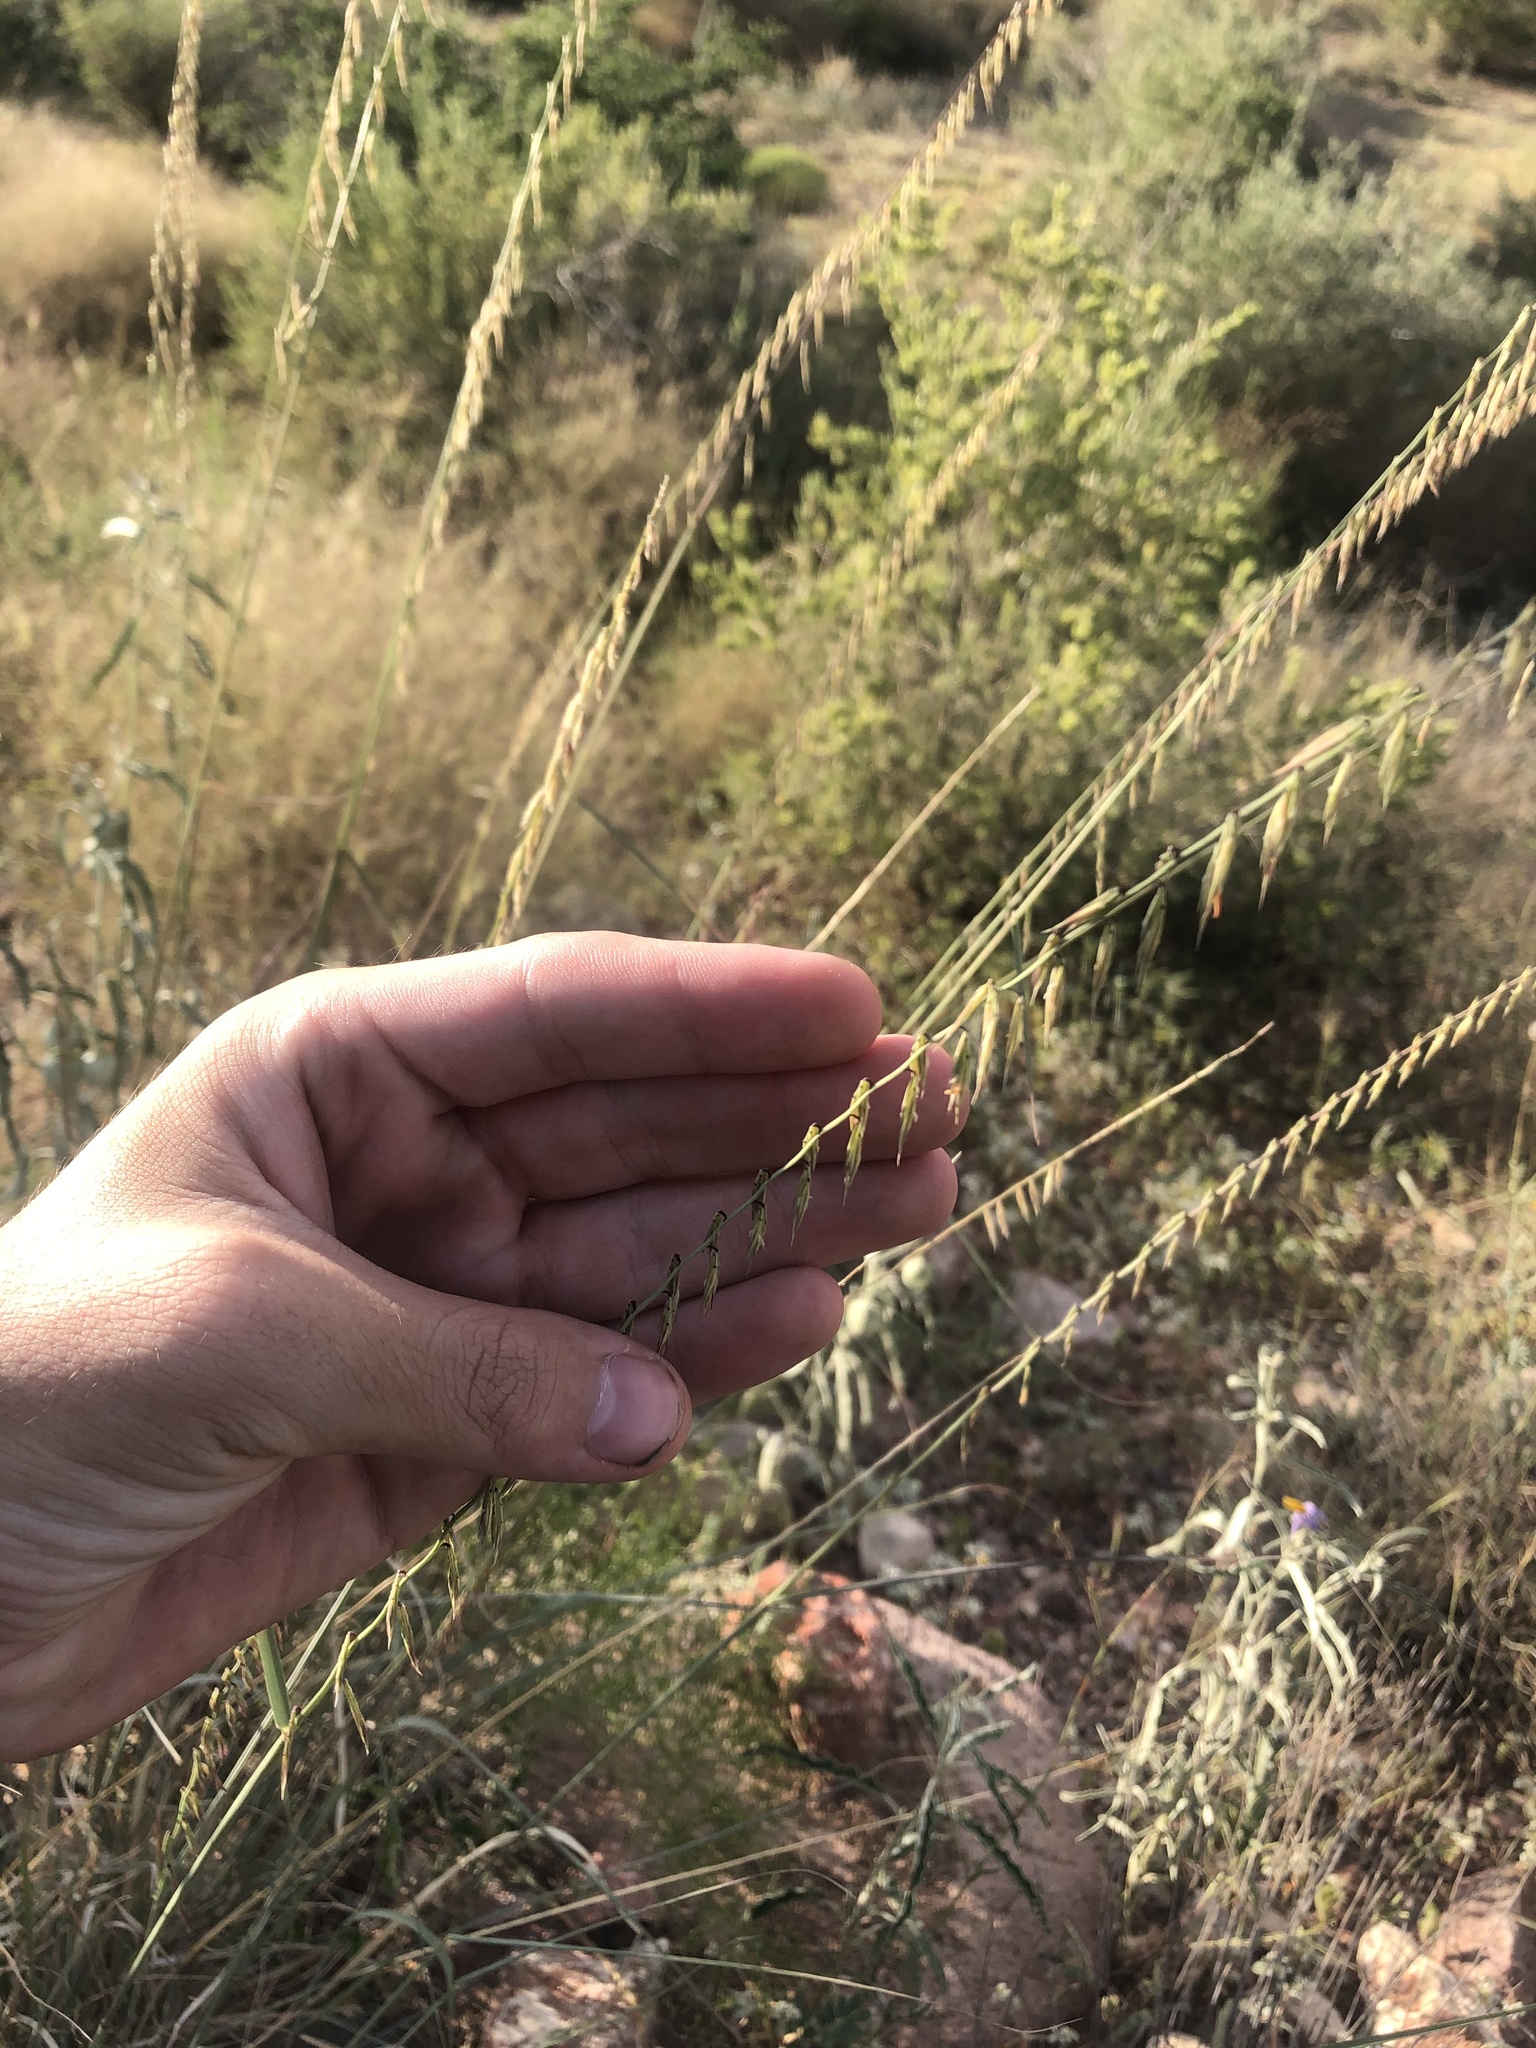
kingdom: Plantae
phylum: Tracheophyta
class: Liliopsida
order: Poales
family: Poaceae
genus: Bouteloua
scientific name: Bouteloua curtipendula
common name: Side-oats grama
